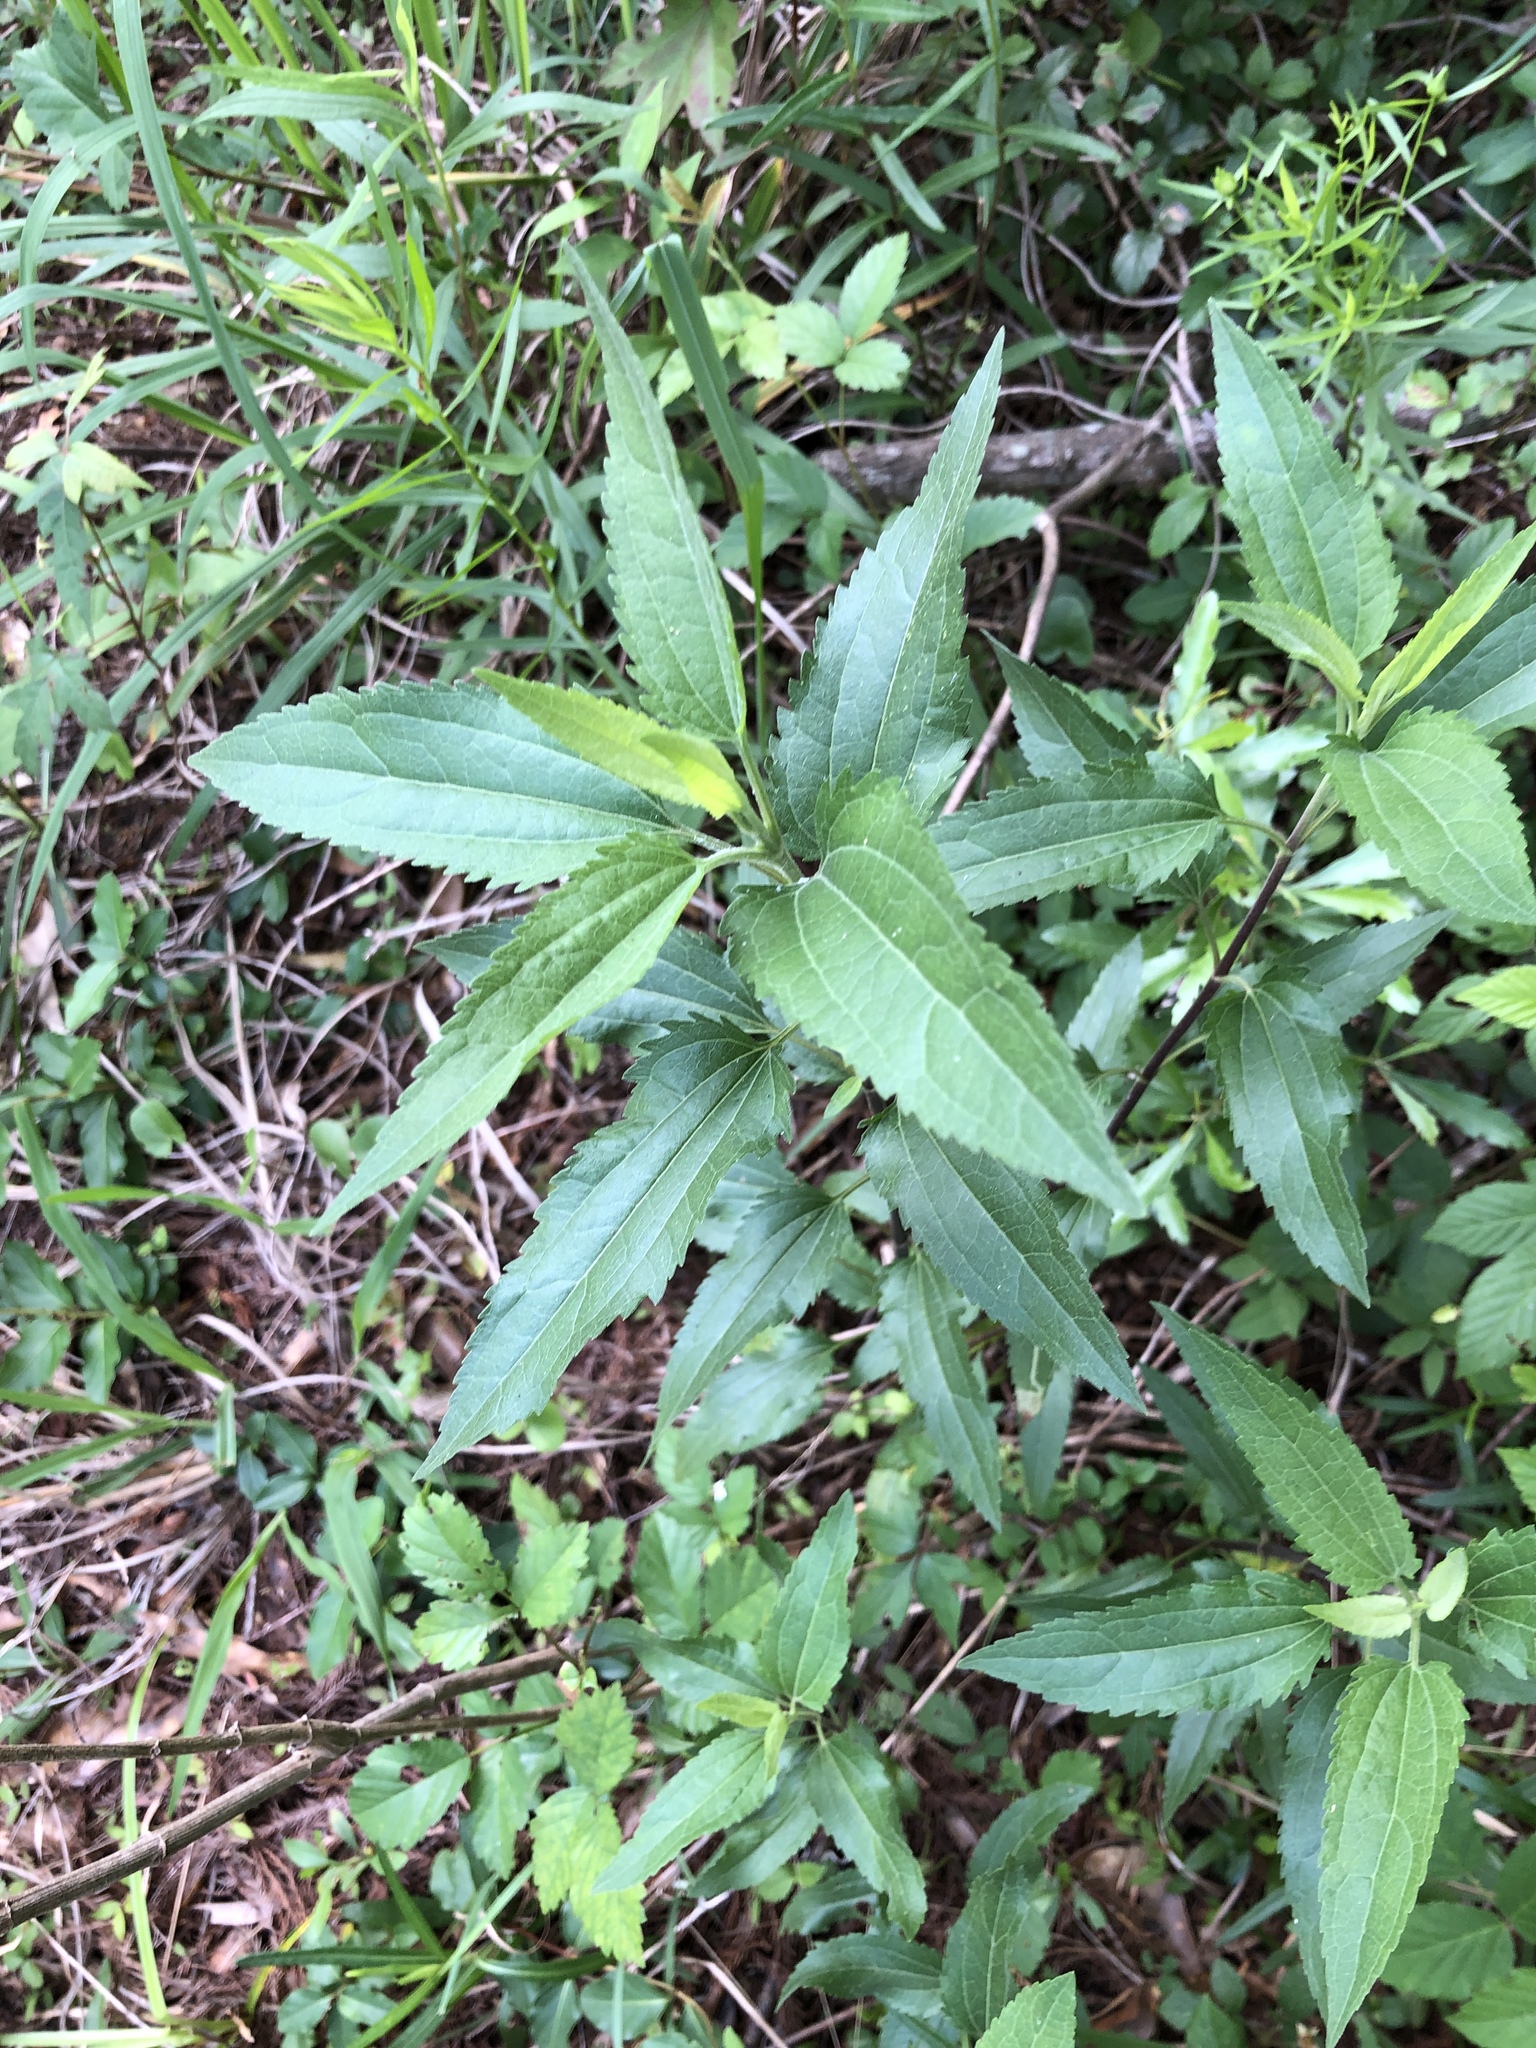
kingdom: Plantae
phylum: Tracheophyta
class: Magnoliopsida
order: Asterales
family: Asteraceae
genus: Eupatorium
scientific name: Eupatorium serotinum
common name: Late boneset
